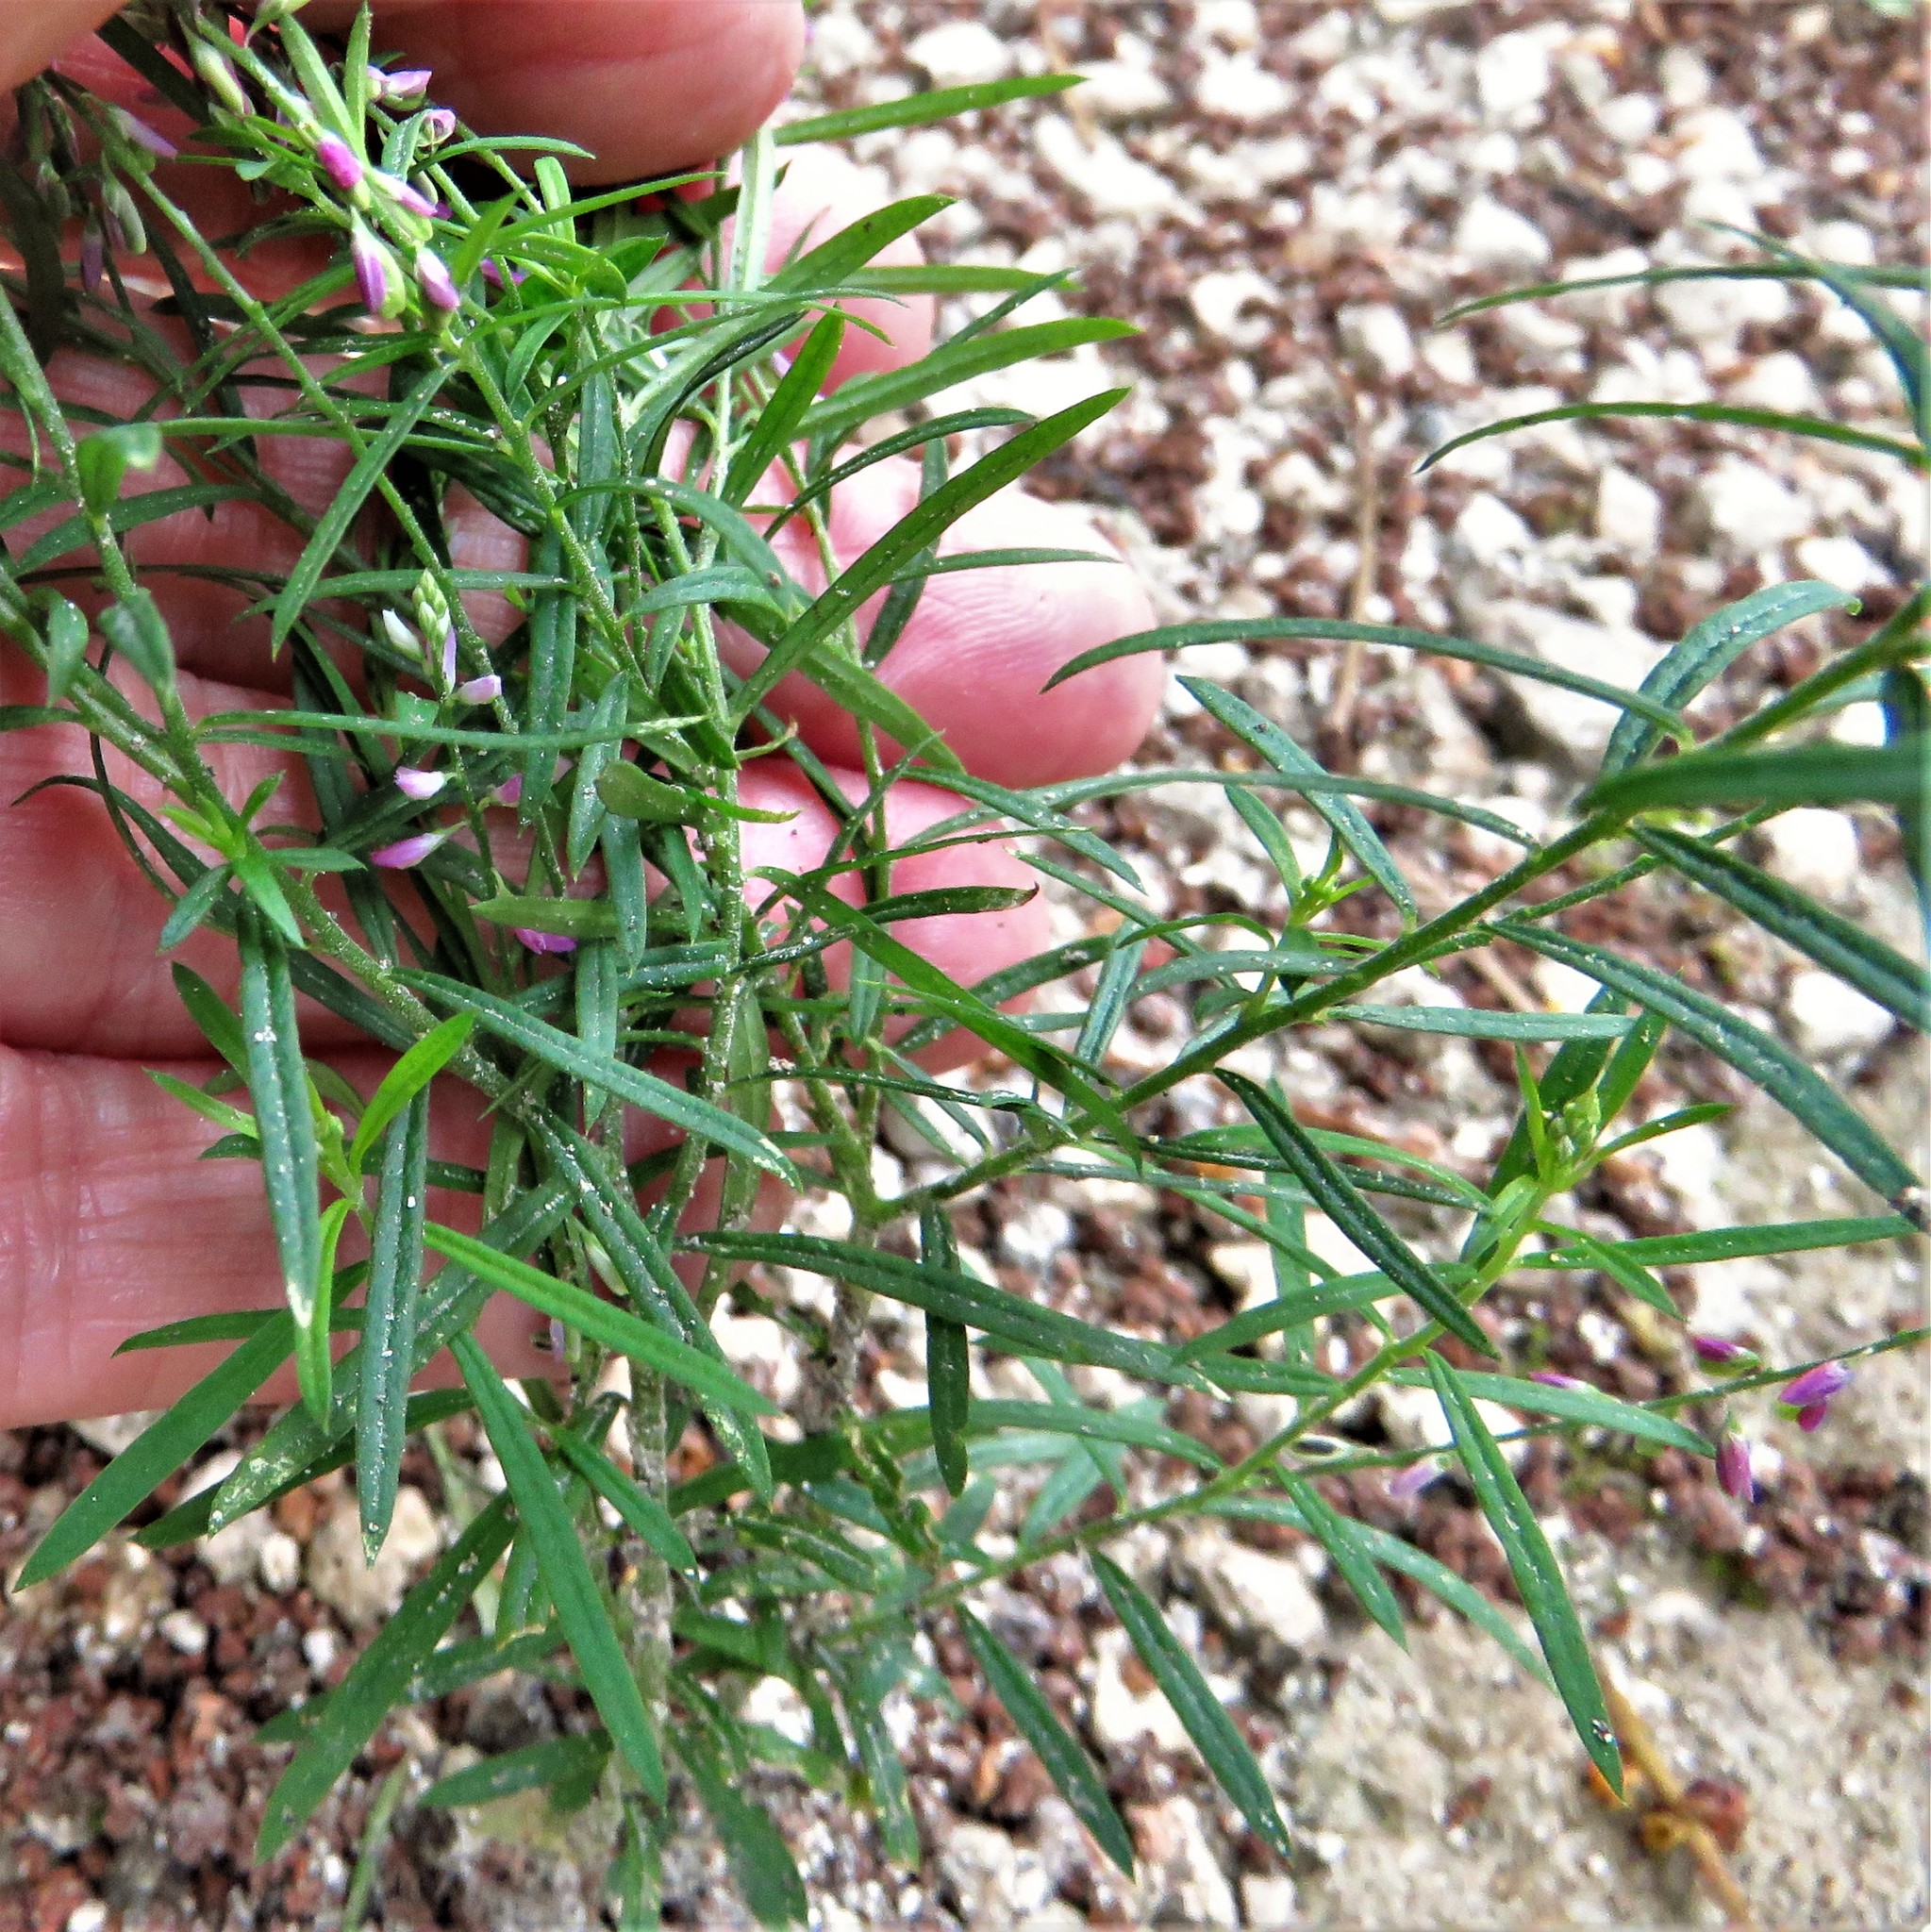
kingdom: Plantae
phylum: Tracheophyta
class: Magnoliopsida
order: Fabales
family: Polygalaceae
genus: Polygala
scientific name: Polygala paniculata
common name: Orosne
